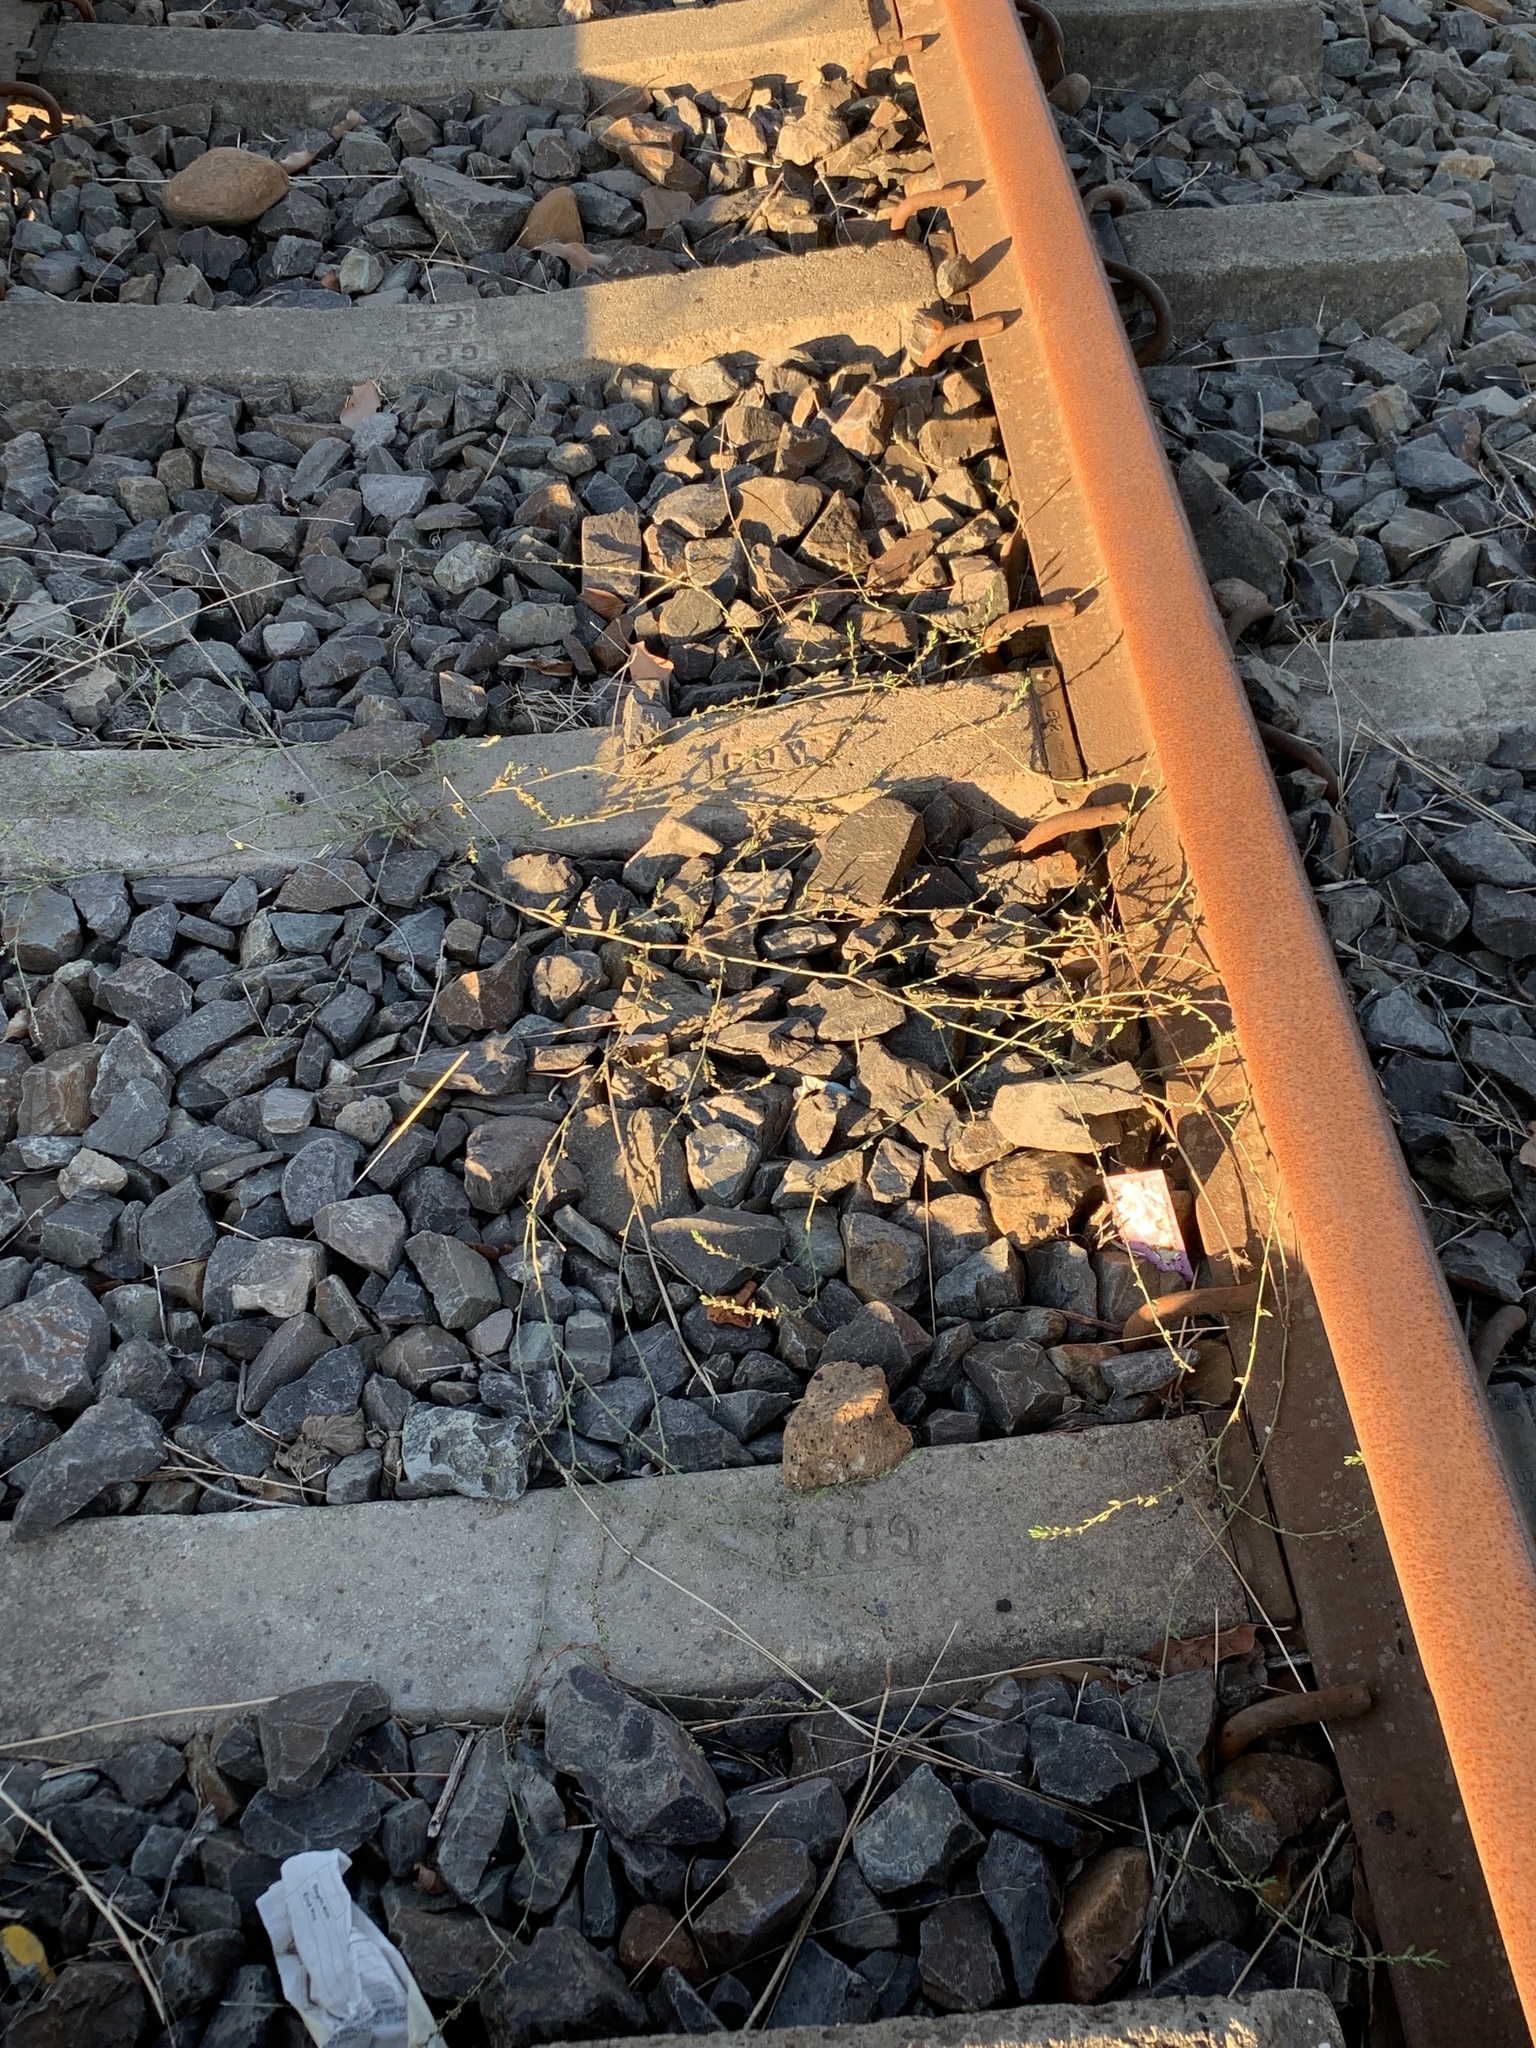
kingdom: Plantae
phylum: Tracheophyta
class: Magnoliopsida
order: Caryophyllales
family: Polygonaceae
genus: Polygonum
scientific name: Polygonum aviculare
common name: Prostrate knotweed
